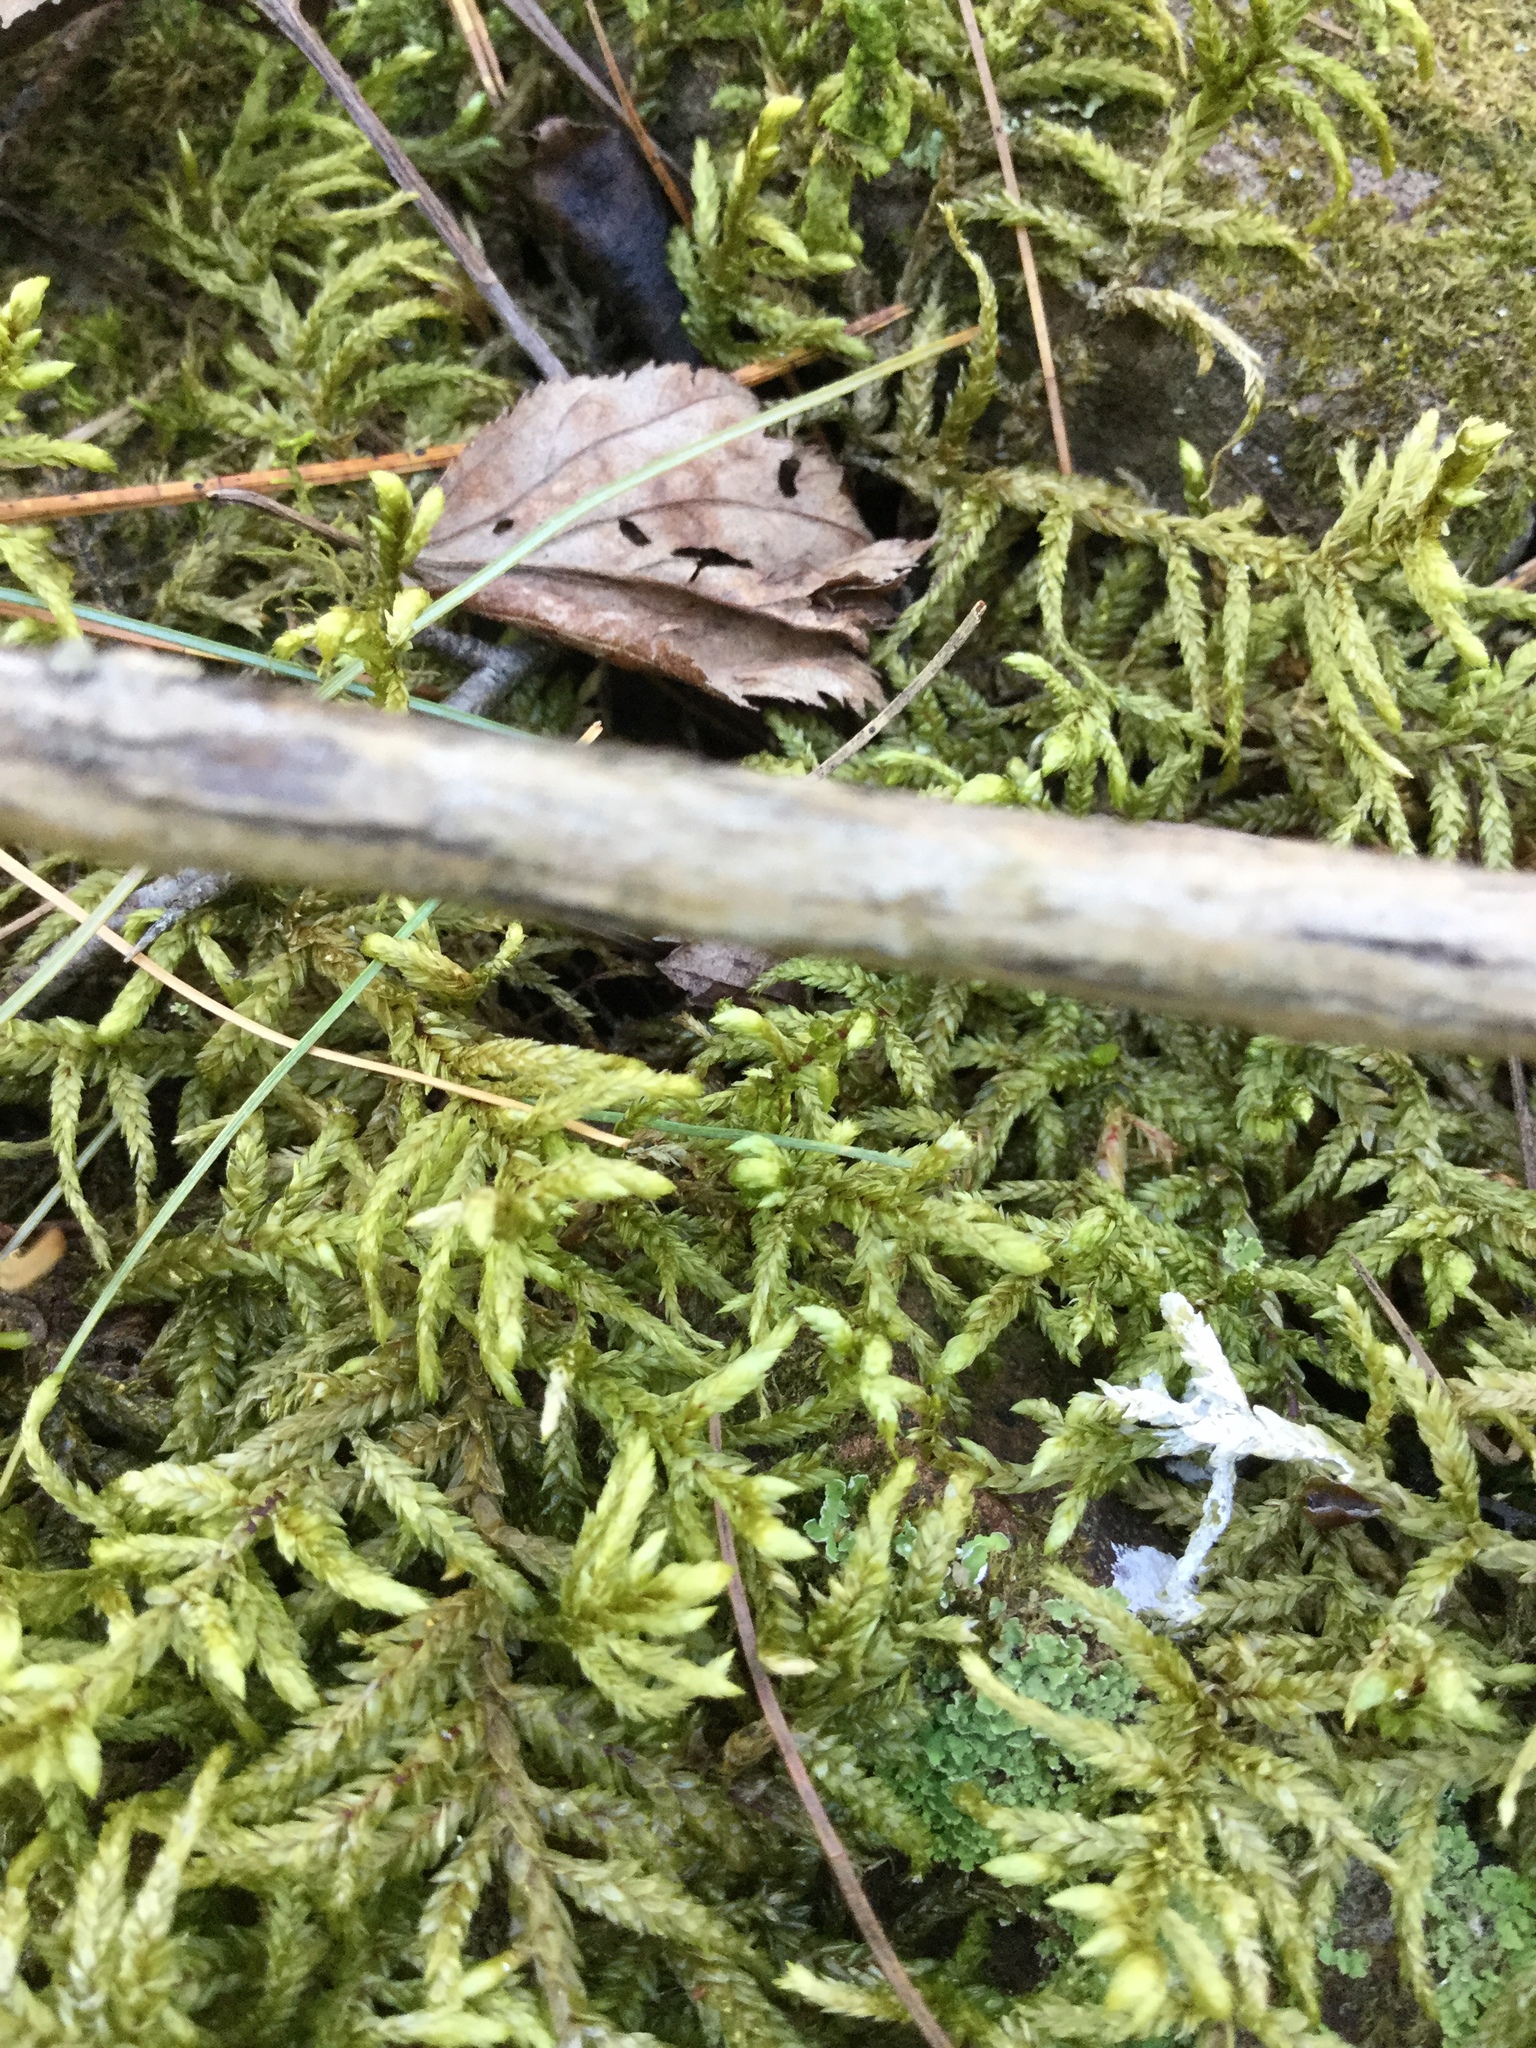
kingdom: Plantae
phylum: Bryophyta
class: Bryopsida
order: Hypnales
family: Hylocomiaceae
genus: Pleurozium
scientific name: Pleurozium schreberi
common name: Red-stemmed feather moss
